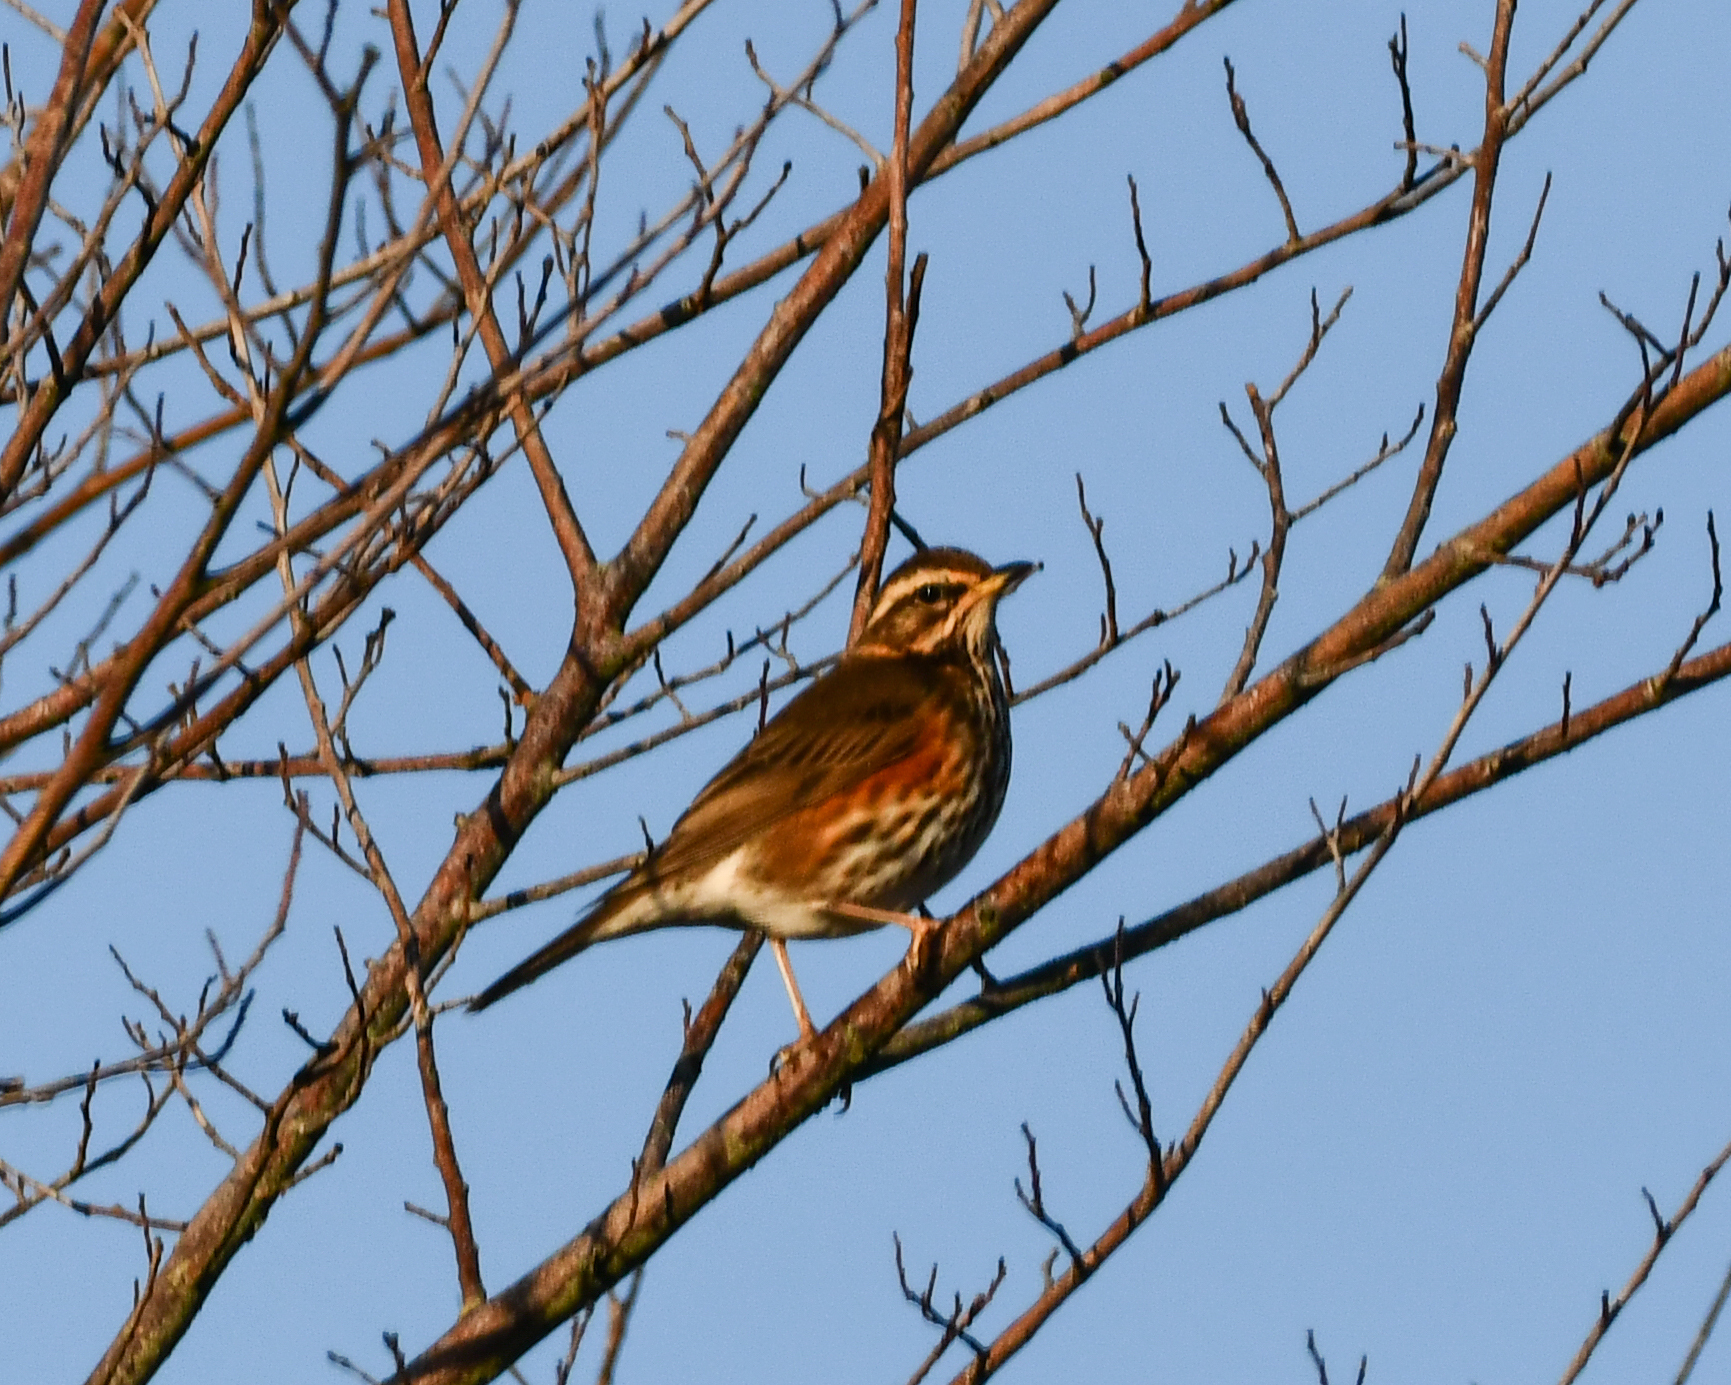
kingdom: Animalia
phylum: Chordata
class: Aves
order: Passeriformes
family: Turdidae
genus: Turdus
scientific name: Turdus iliacus
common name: Redwing
